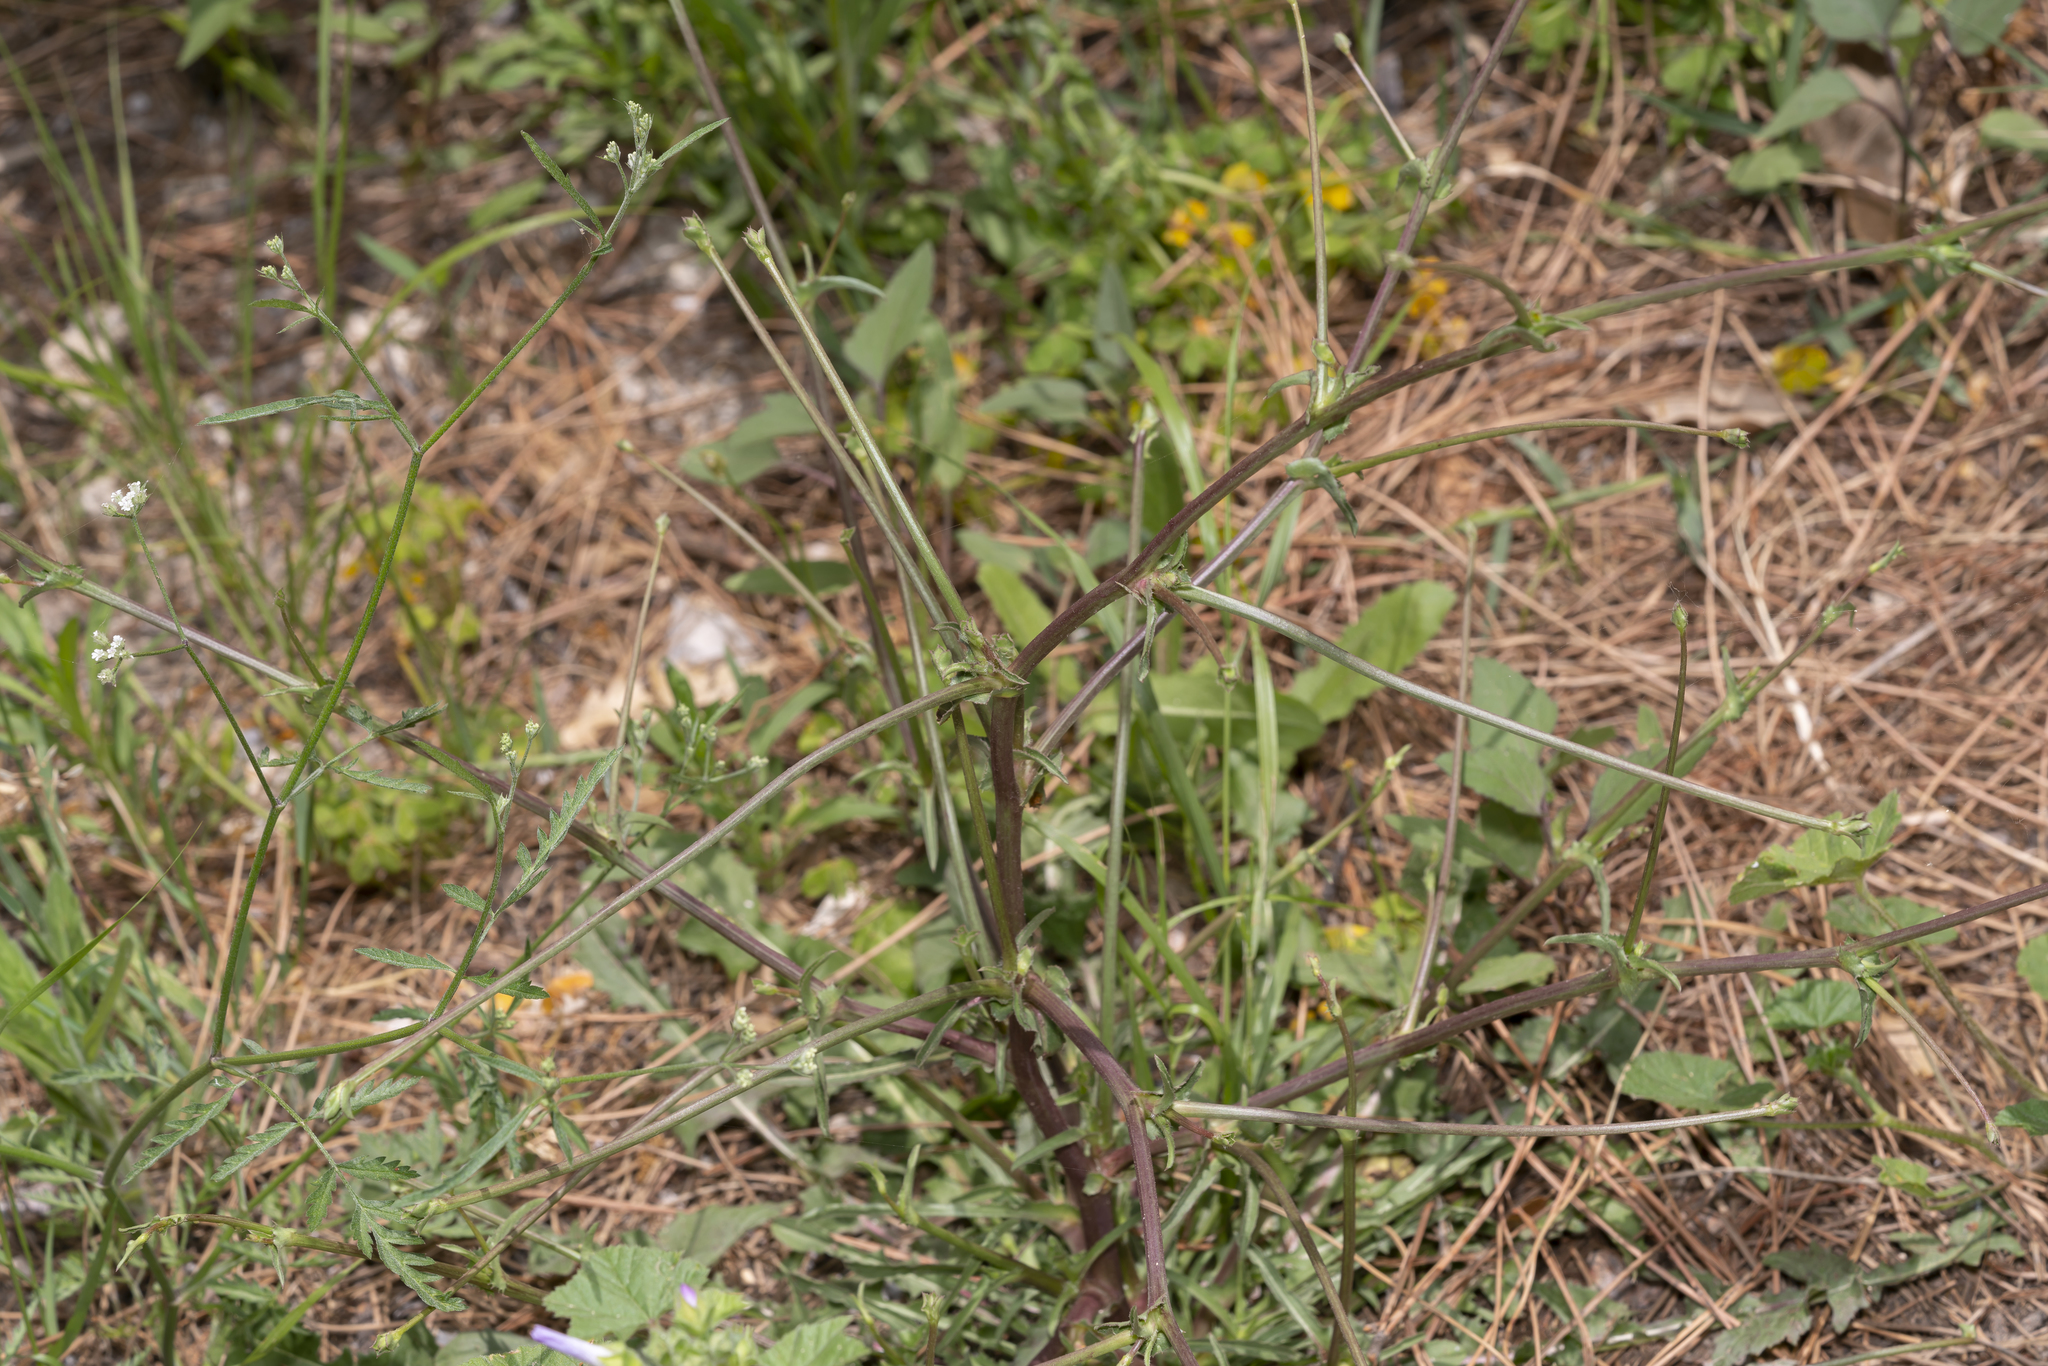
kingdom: Plantae
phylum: Tracheophyta
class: Magnoliopsida
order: Asterales
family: Asteraceae
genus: Cichorium
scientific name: Cichorium intybus
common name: Chicory
